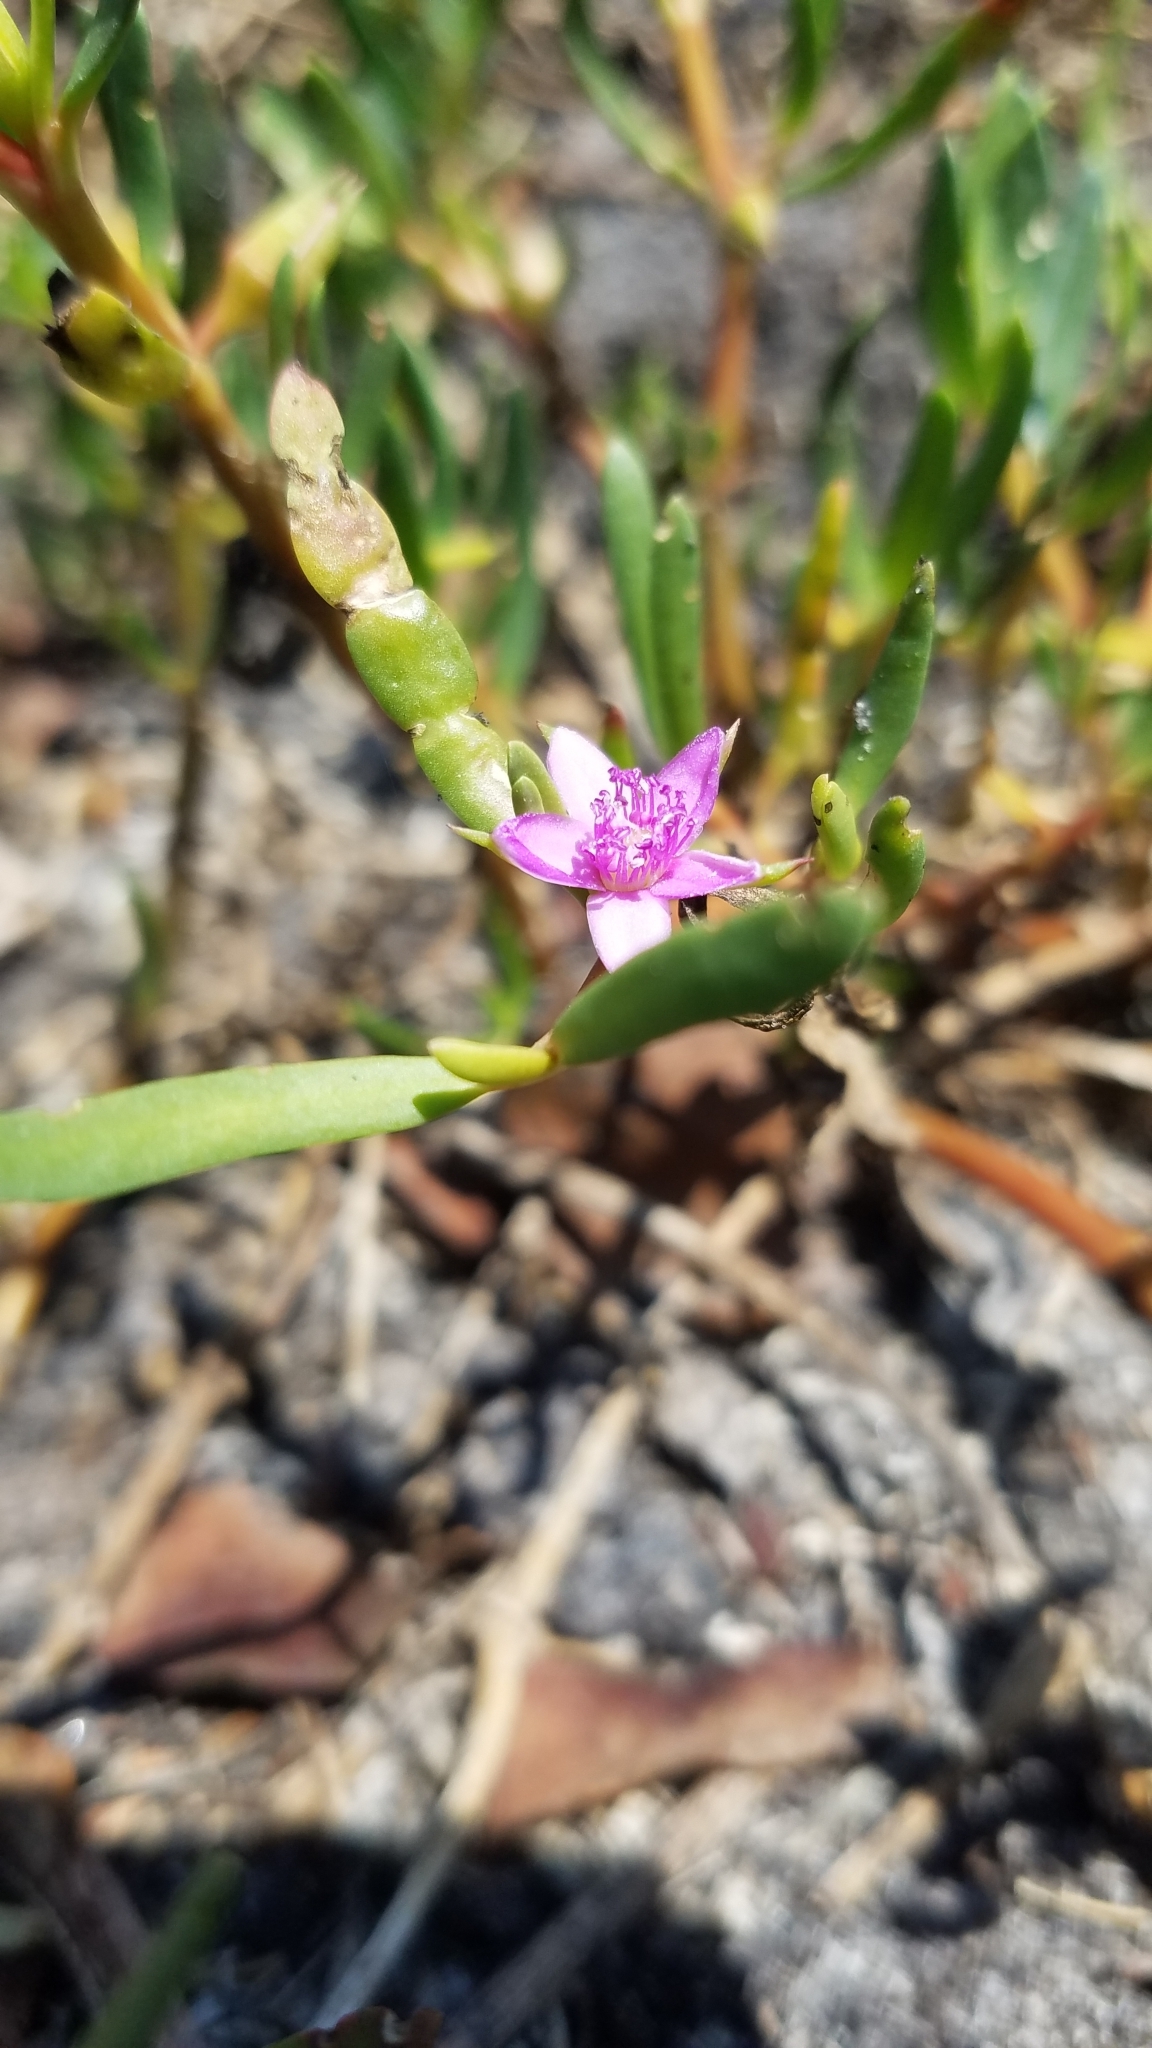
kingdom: Plantae
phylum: Tracheophyta
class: Magnoliopsida
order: Caryophyllales
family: Aizoaceae
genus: Sesuvium
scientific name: Sesuvium portulacastrum
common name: Sea-purslane
